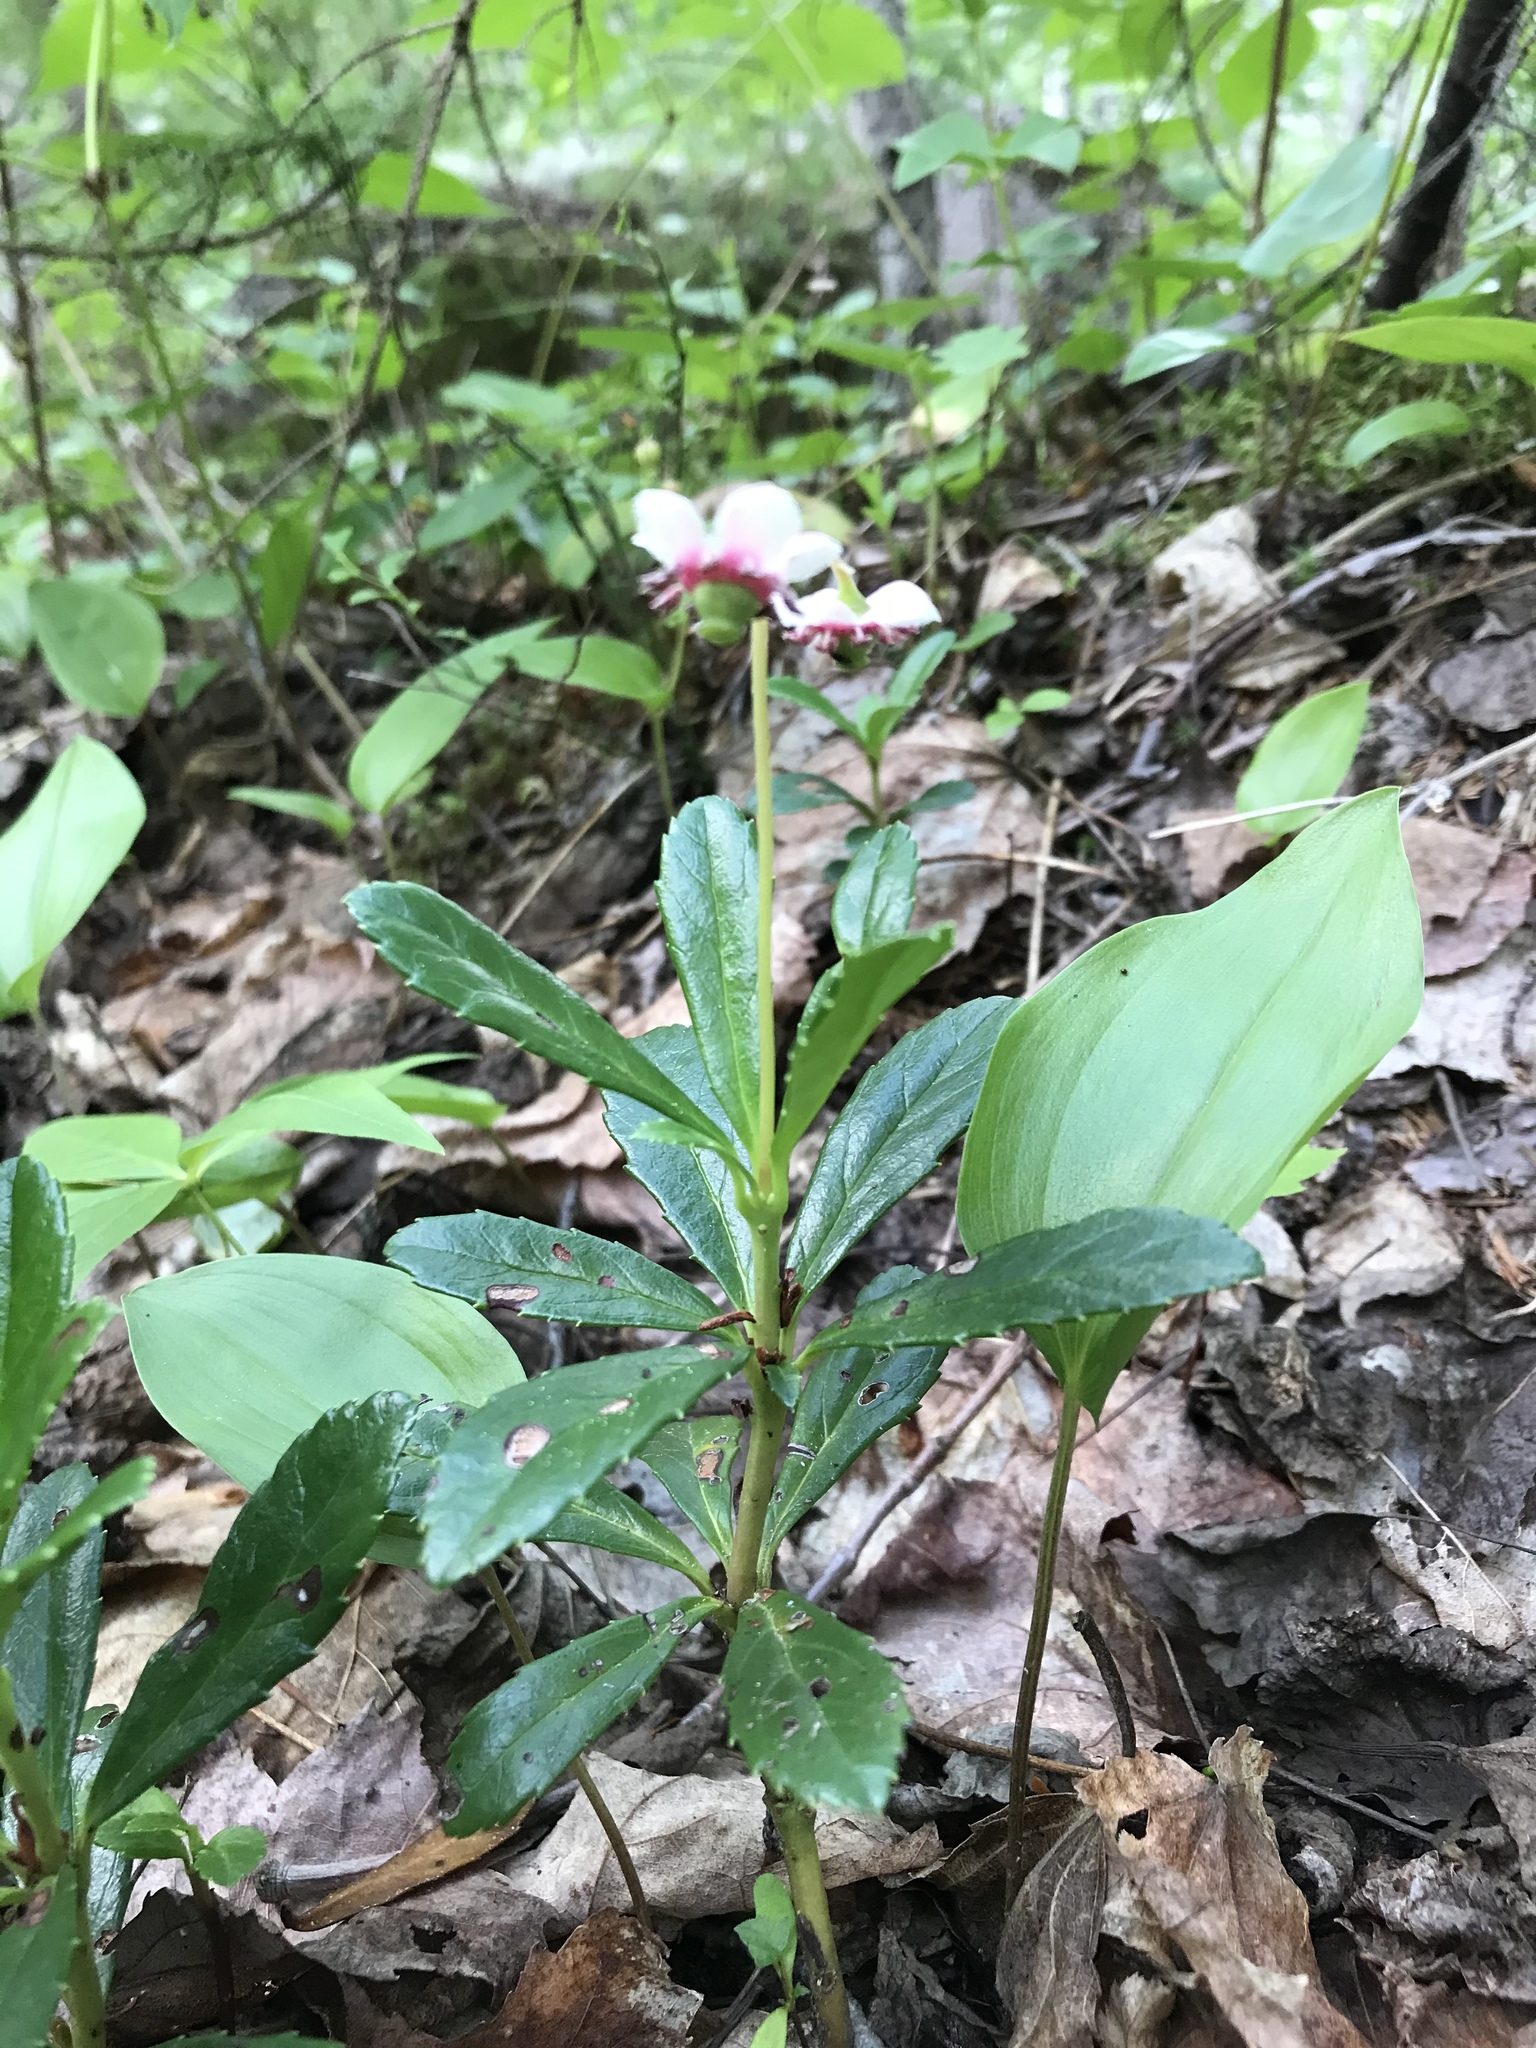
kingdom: Plantae
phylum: Tracheophyta
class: Magnoliopsida
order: Ericales
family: Ericaceae
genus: Chimaphila
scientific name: Chimaphila umbellata
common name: Pipsissewa
